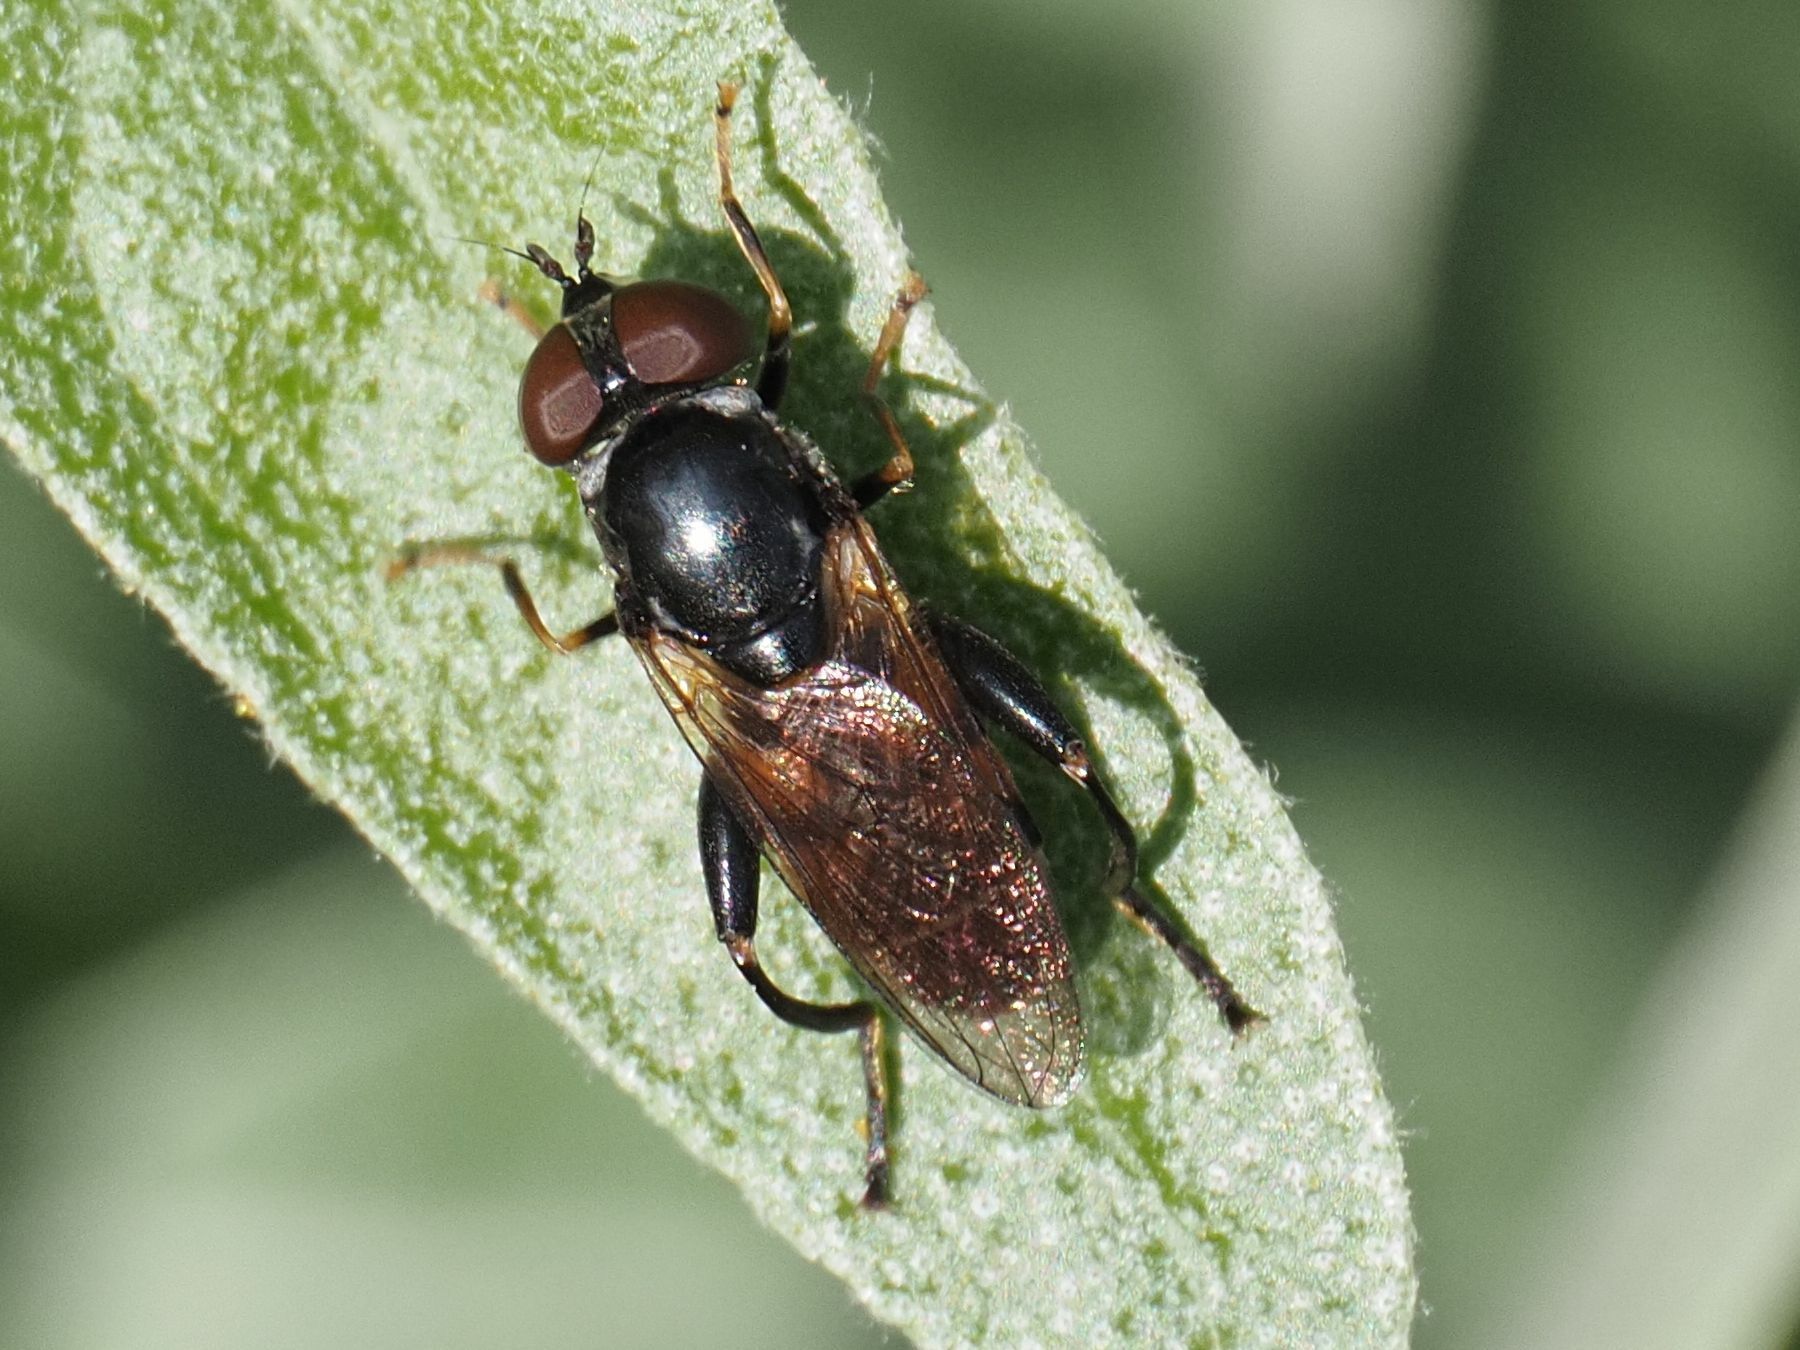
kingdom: Animalia
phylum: Arthropoda
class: Insecta
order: Diptera
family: Syrphidae
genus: Tropidia
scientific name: Tropidia scita
